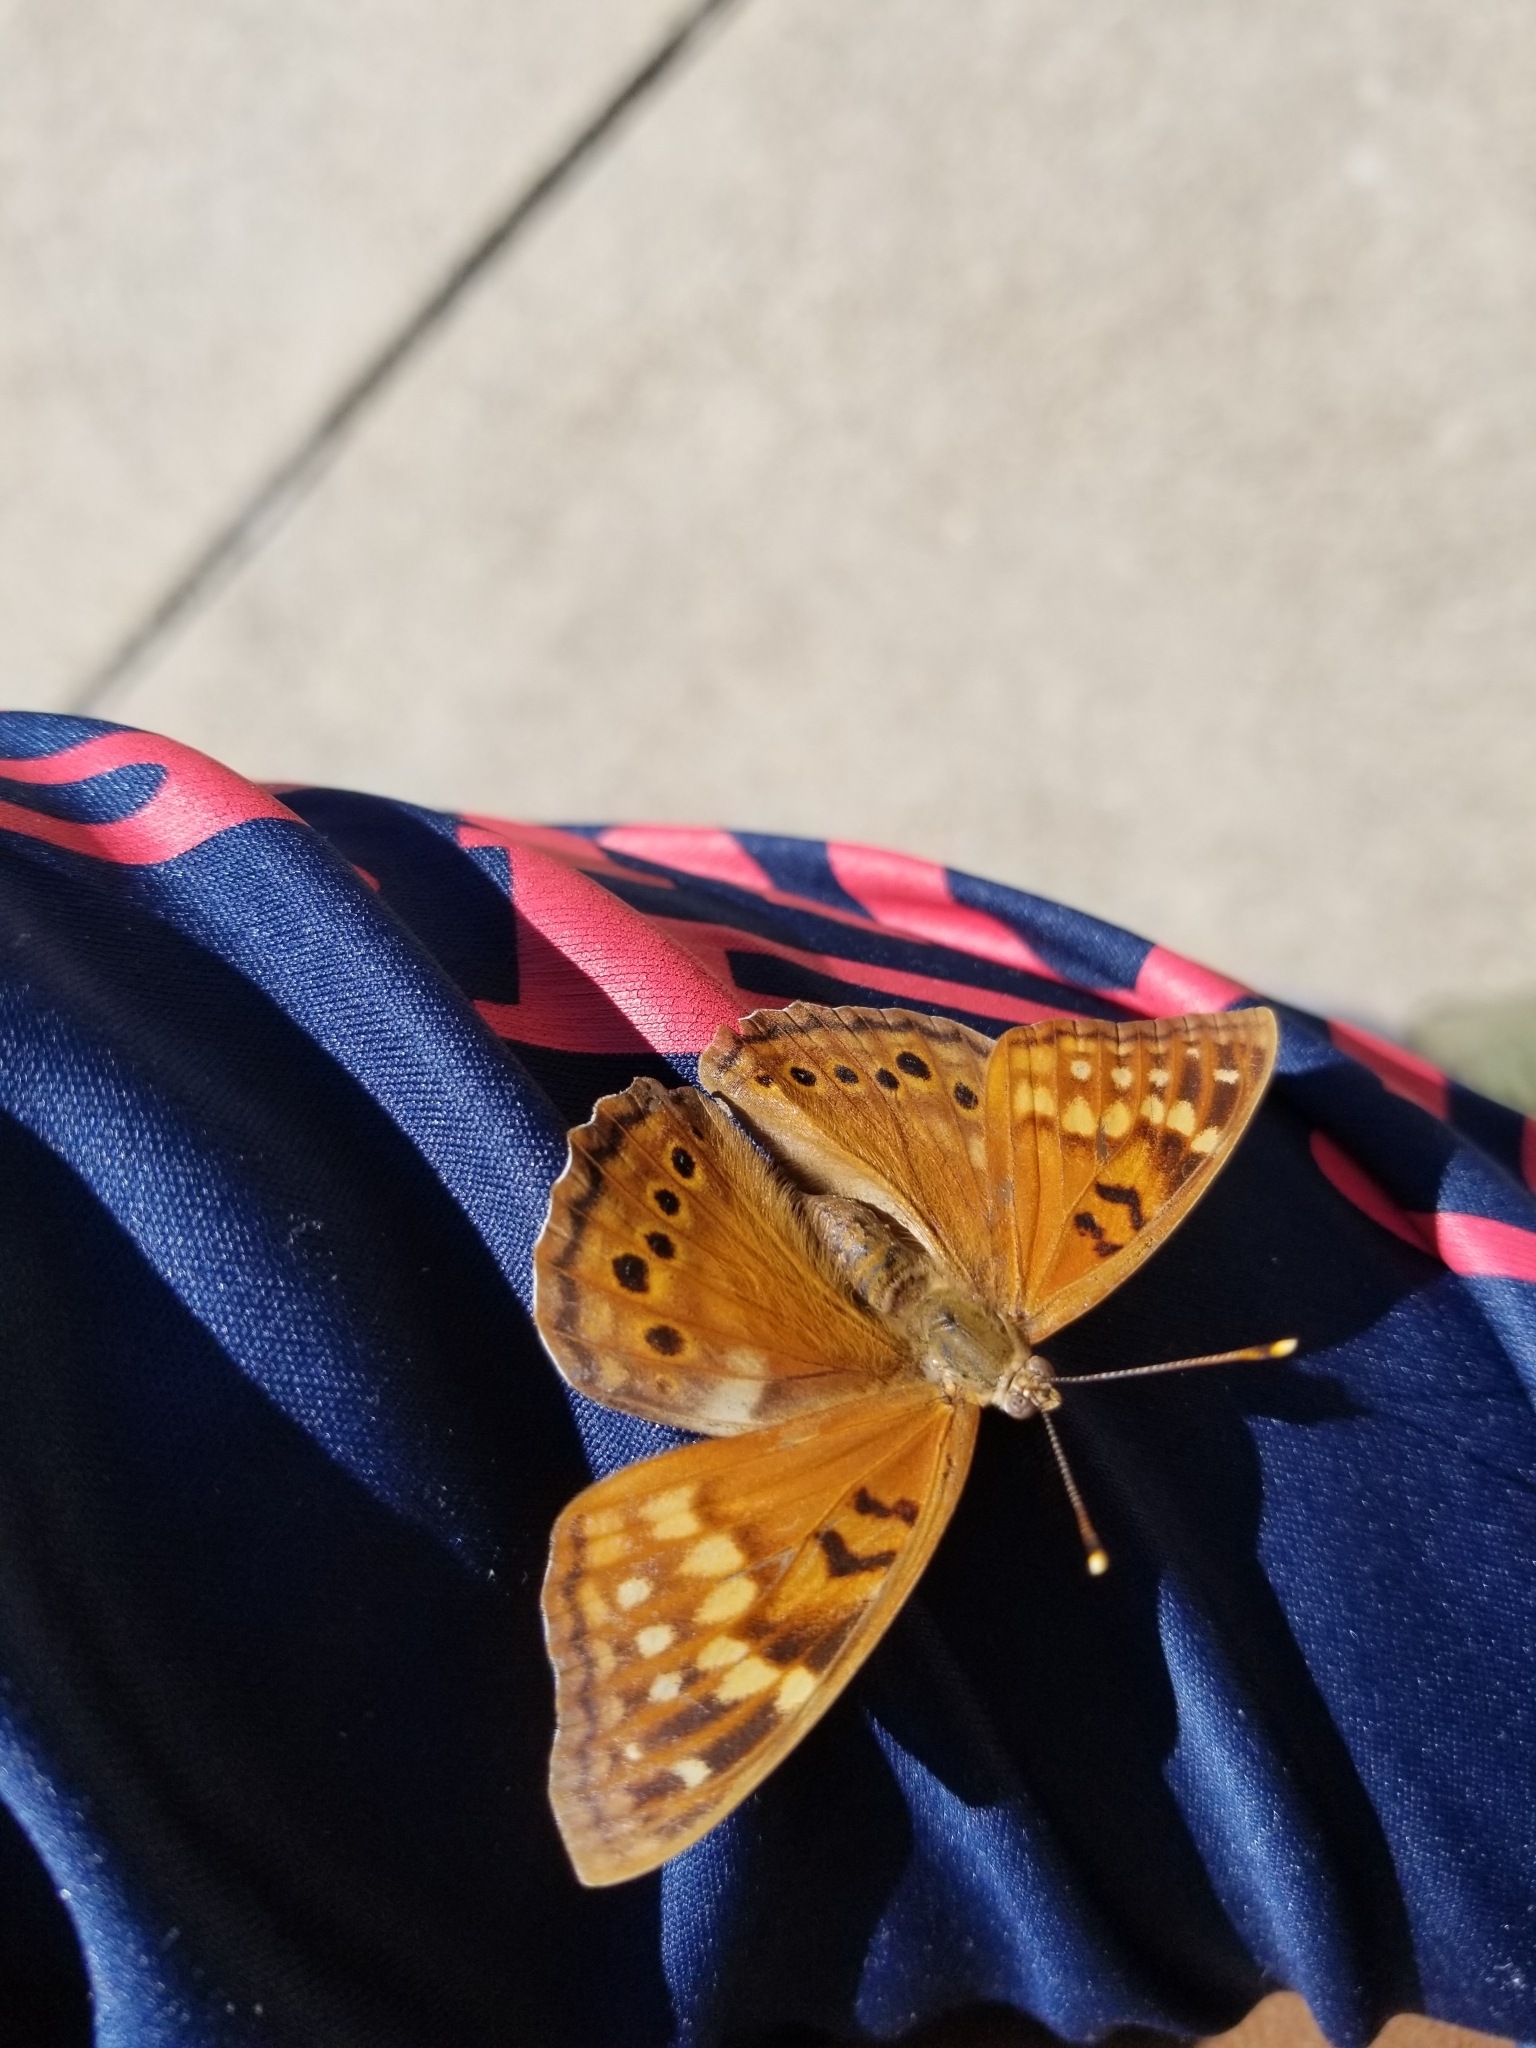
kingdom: Animalia
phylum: Arthropoda
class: Insecta
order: Lepidoptera
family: Nymphalidae
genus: Asterocampa
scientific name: Asterocampa clyton
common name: Tawny emperor
